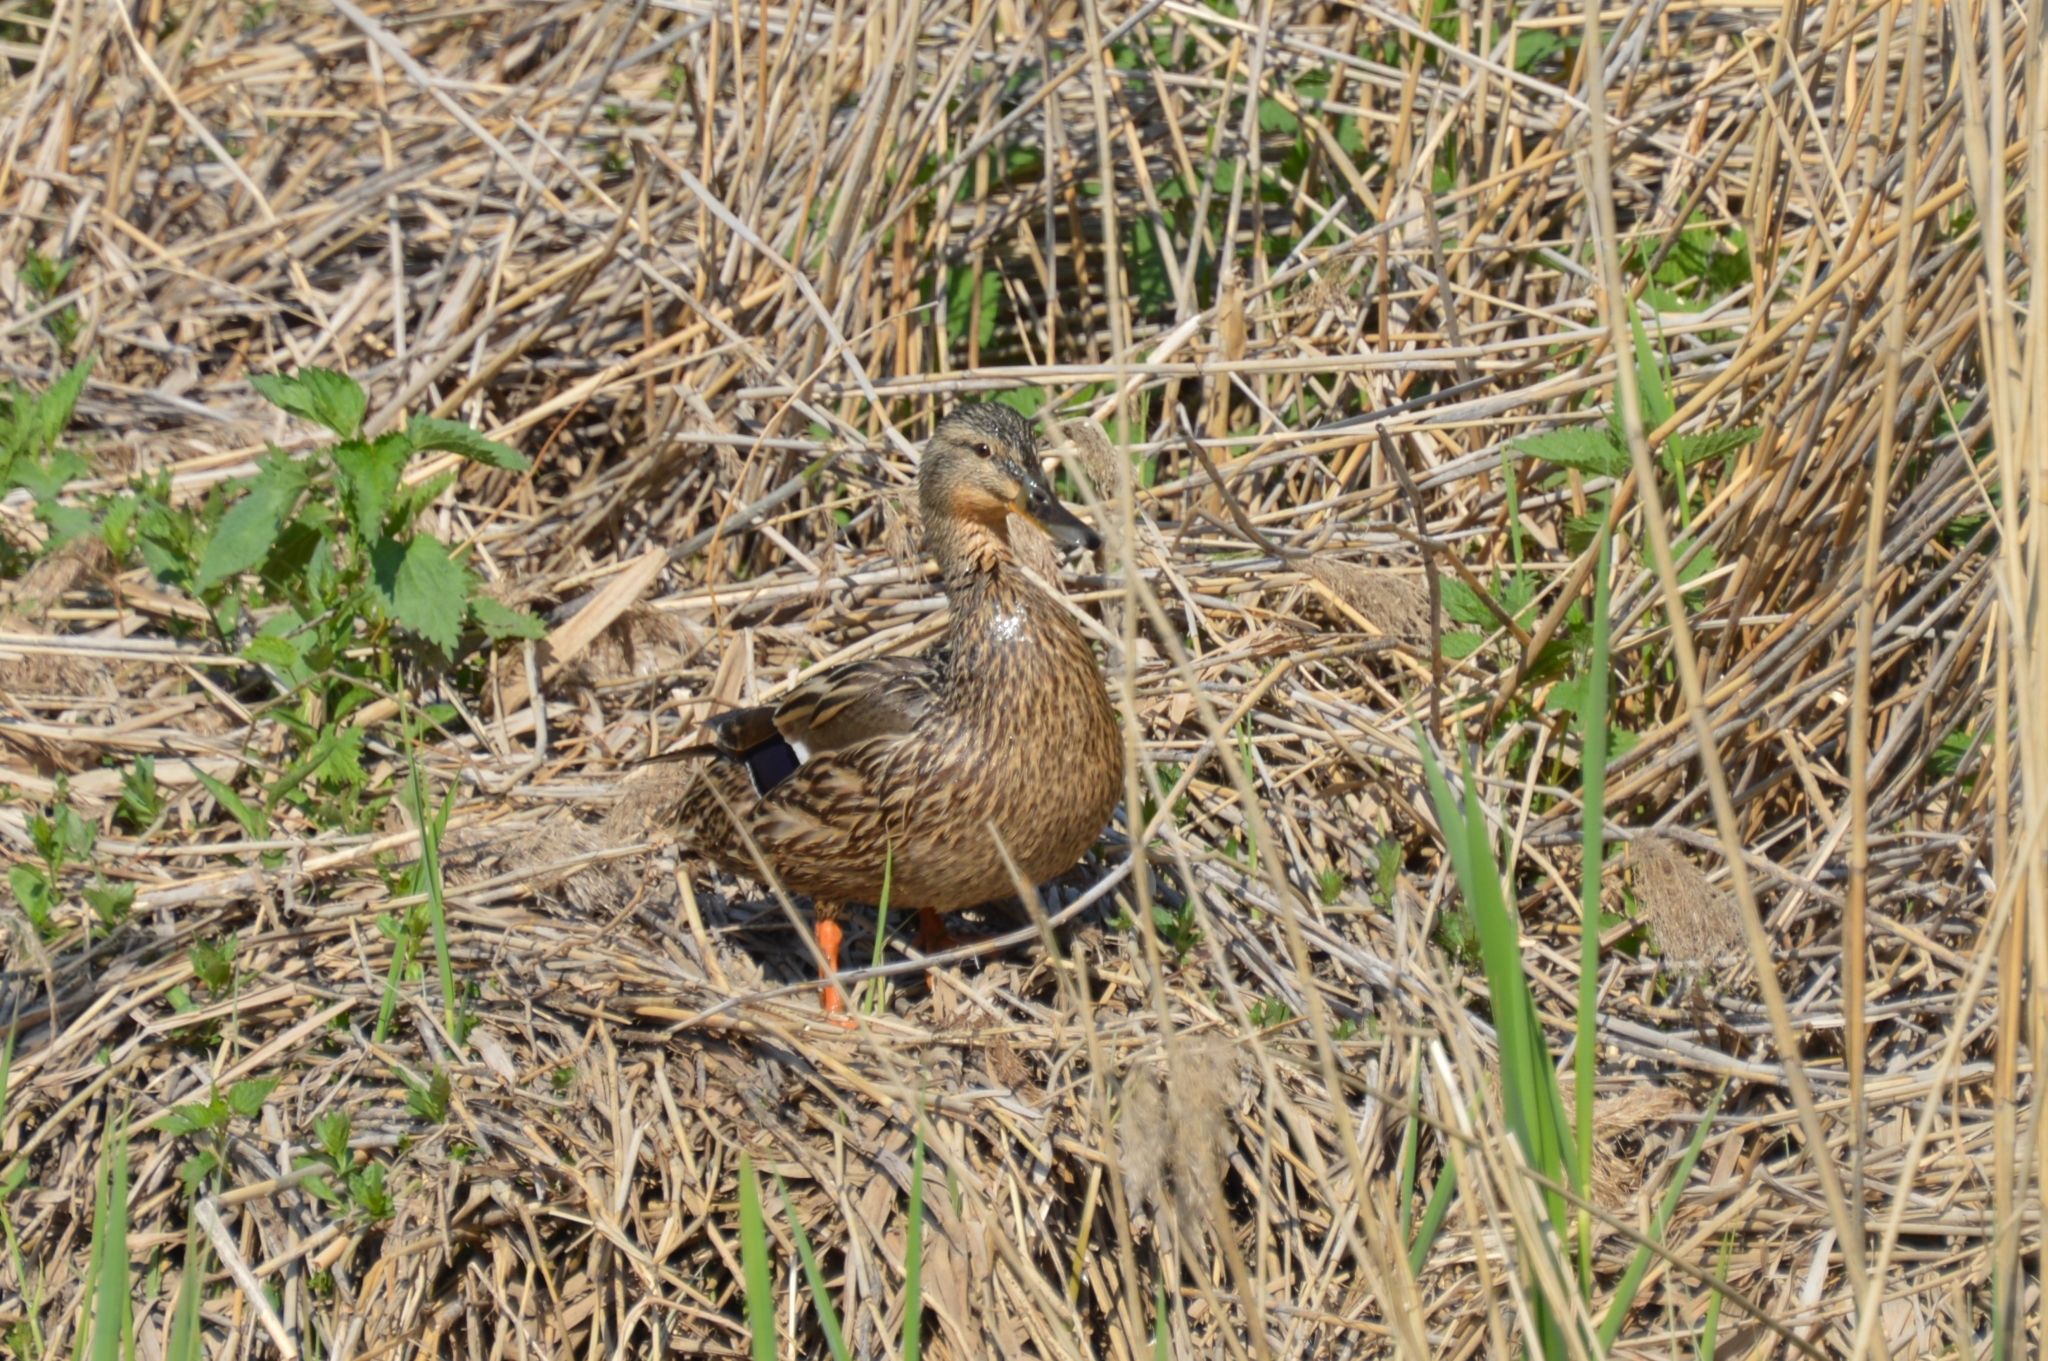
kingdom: Animalia
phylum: Chordata
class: Aves
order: Anseriformes
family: Anatidae
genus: Anas
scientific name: Anas platyrhynchos
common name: Mallard
